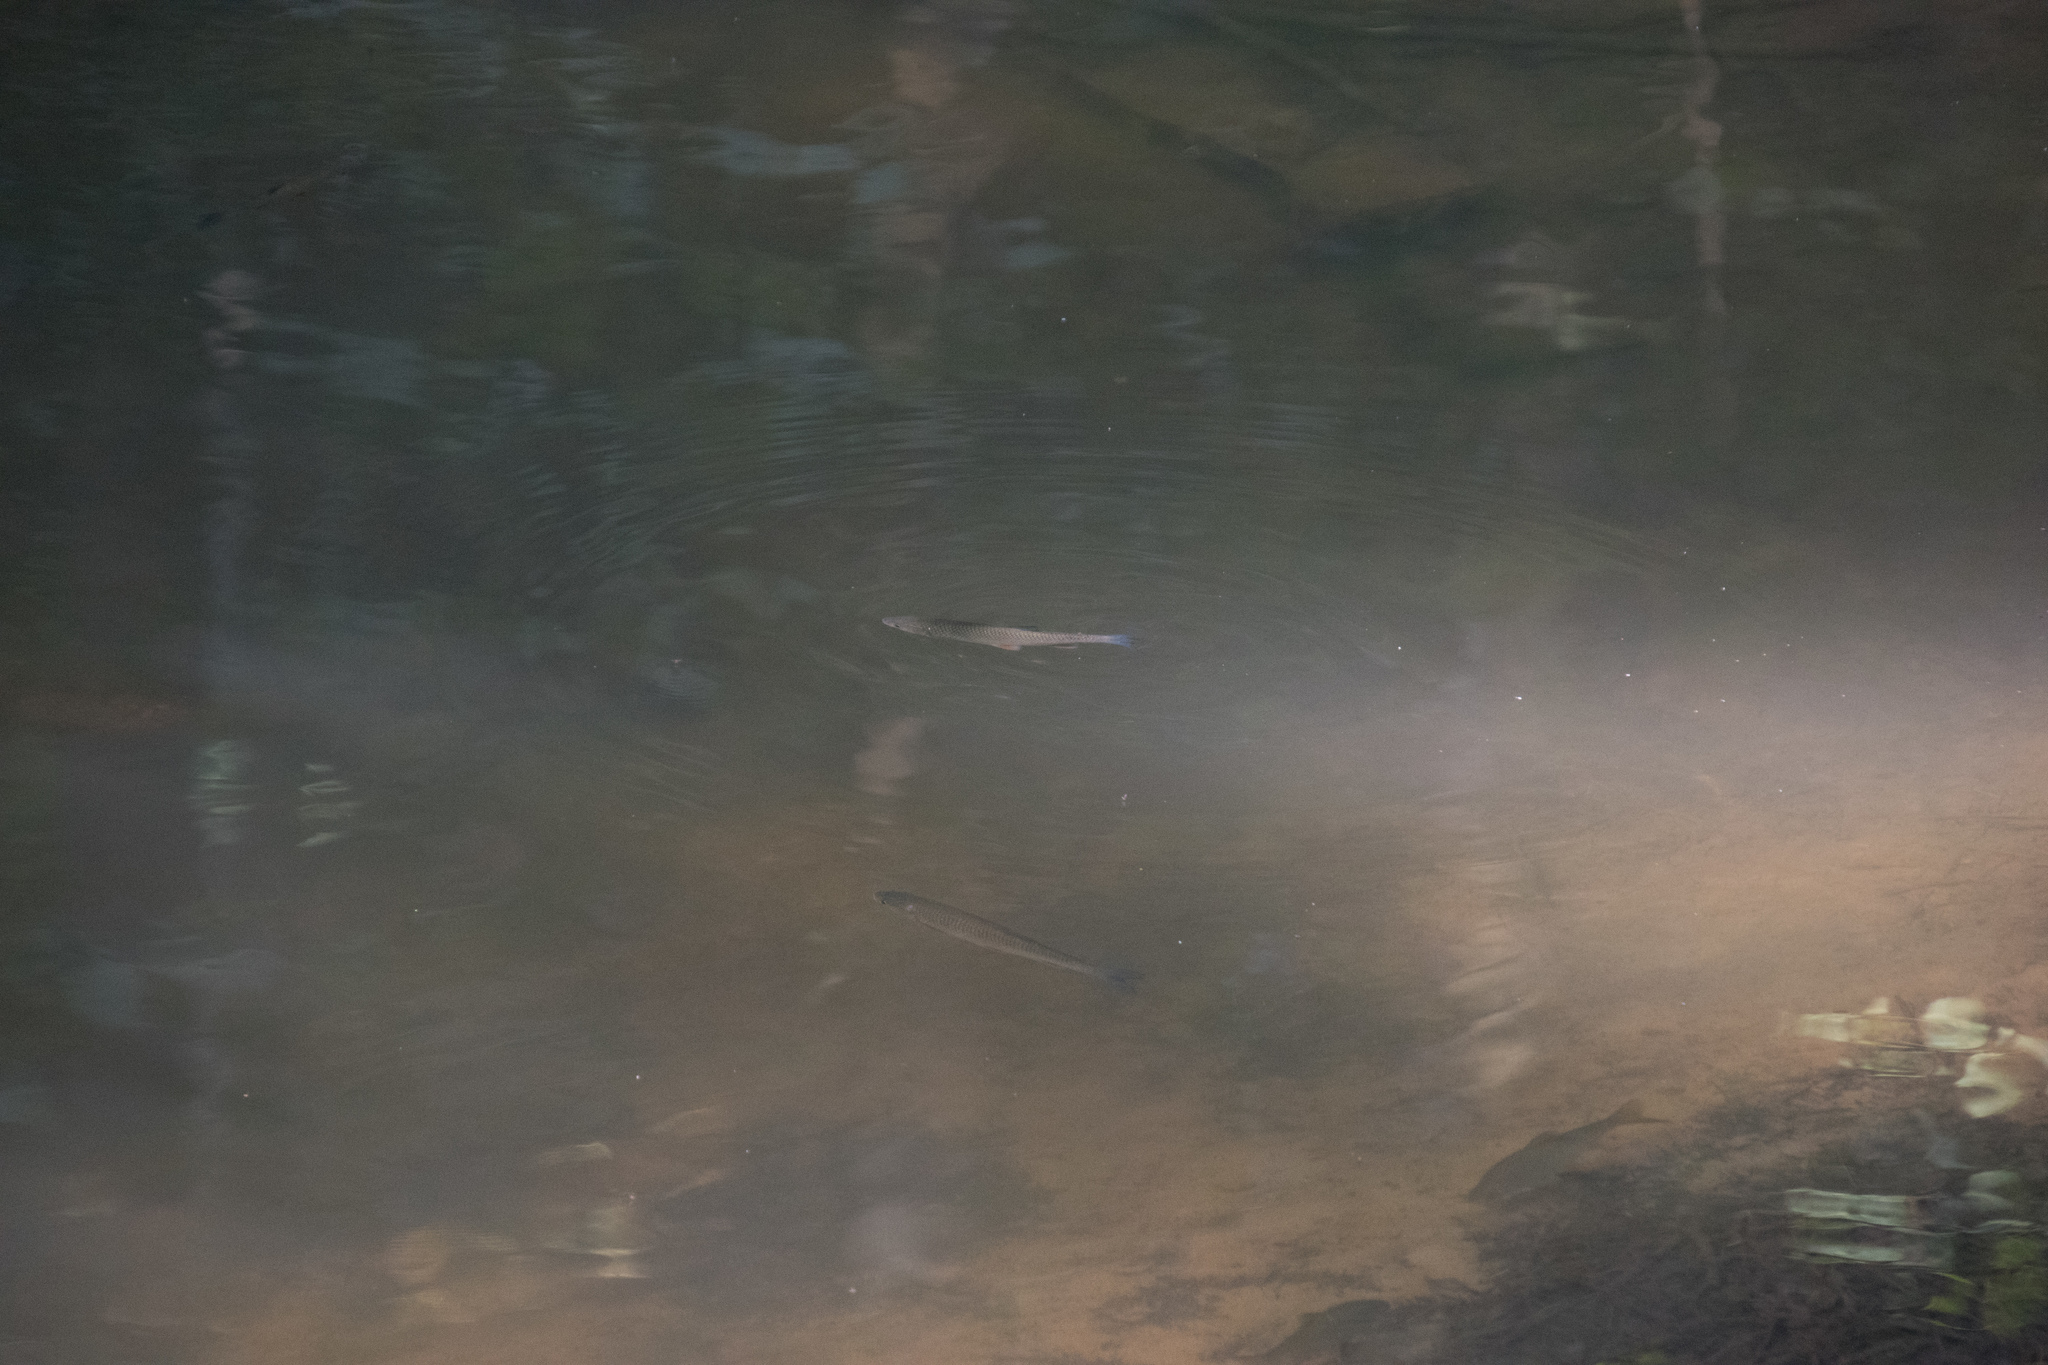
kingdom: Animalia
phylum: Chordata
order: Cypriniformes
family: Cyprinidae
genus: Squalius
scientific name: Squalius cephalus
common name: Chub
